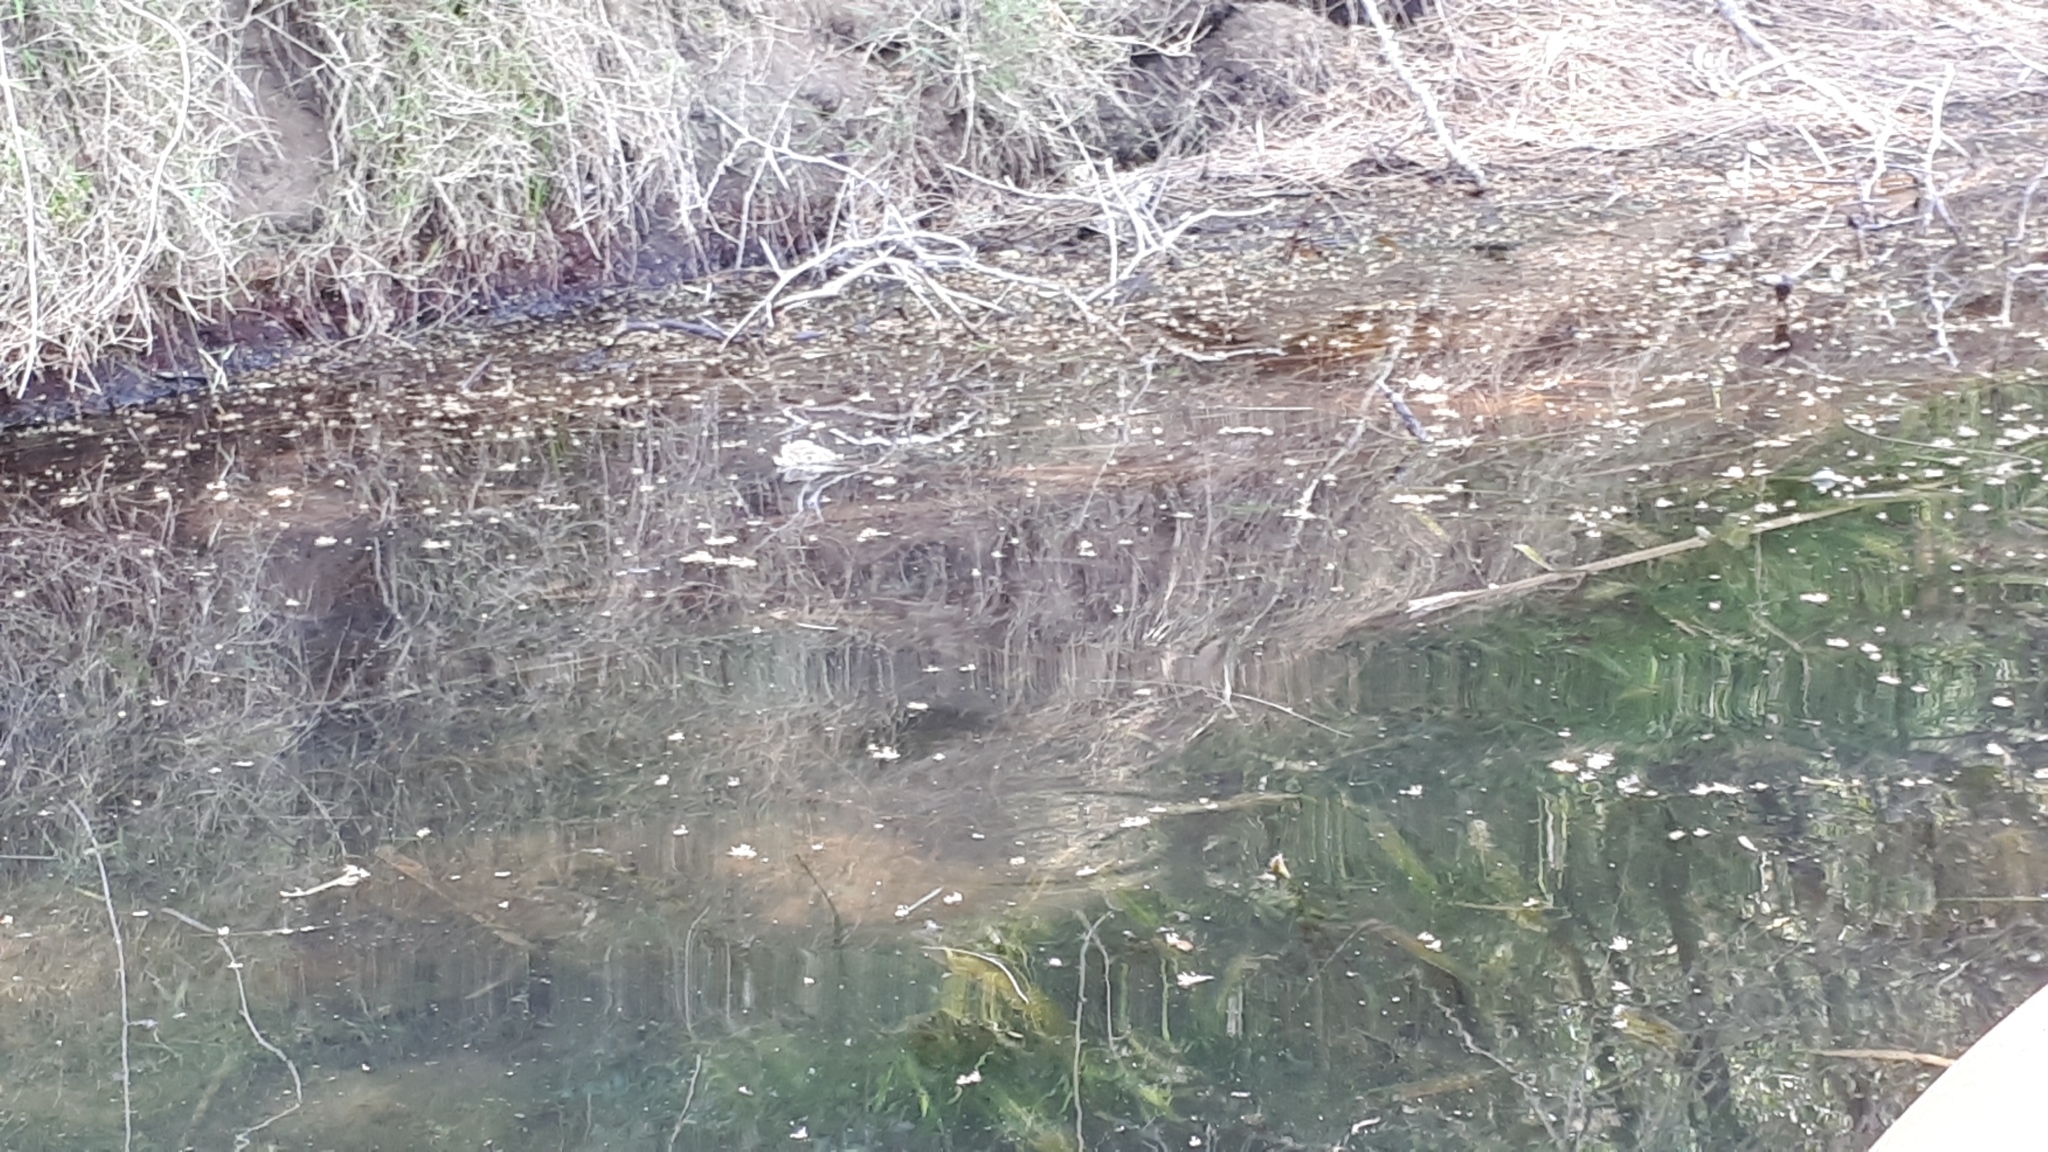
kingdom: Animalia
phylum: Chordata
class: Squamata
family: Agamidae
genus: Intellagama
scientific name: Intellagama lesueurii
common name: Eastern water dragon
